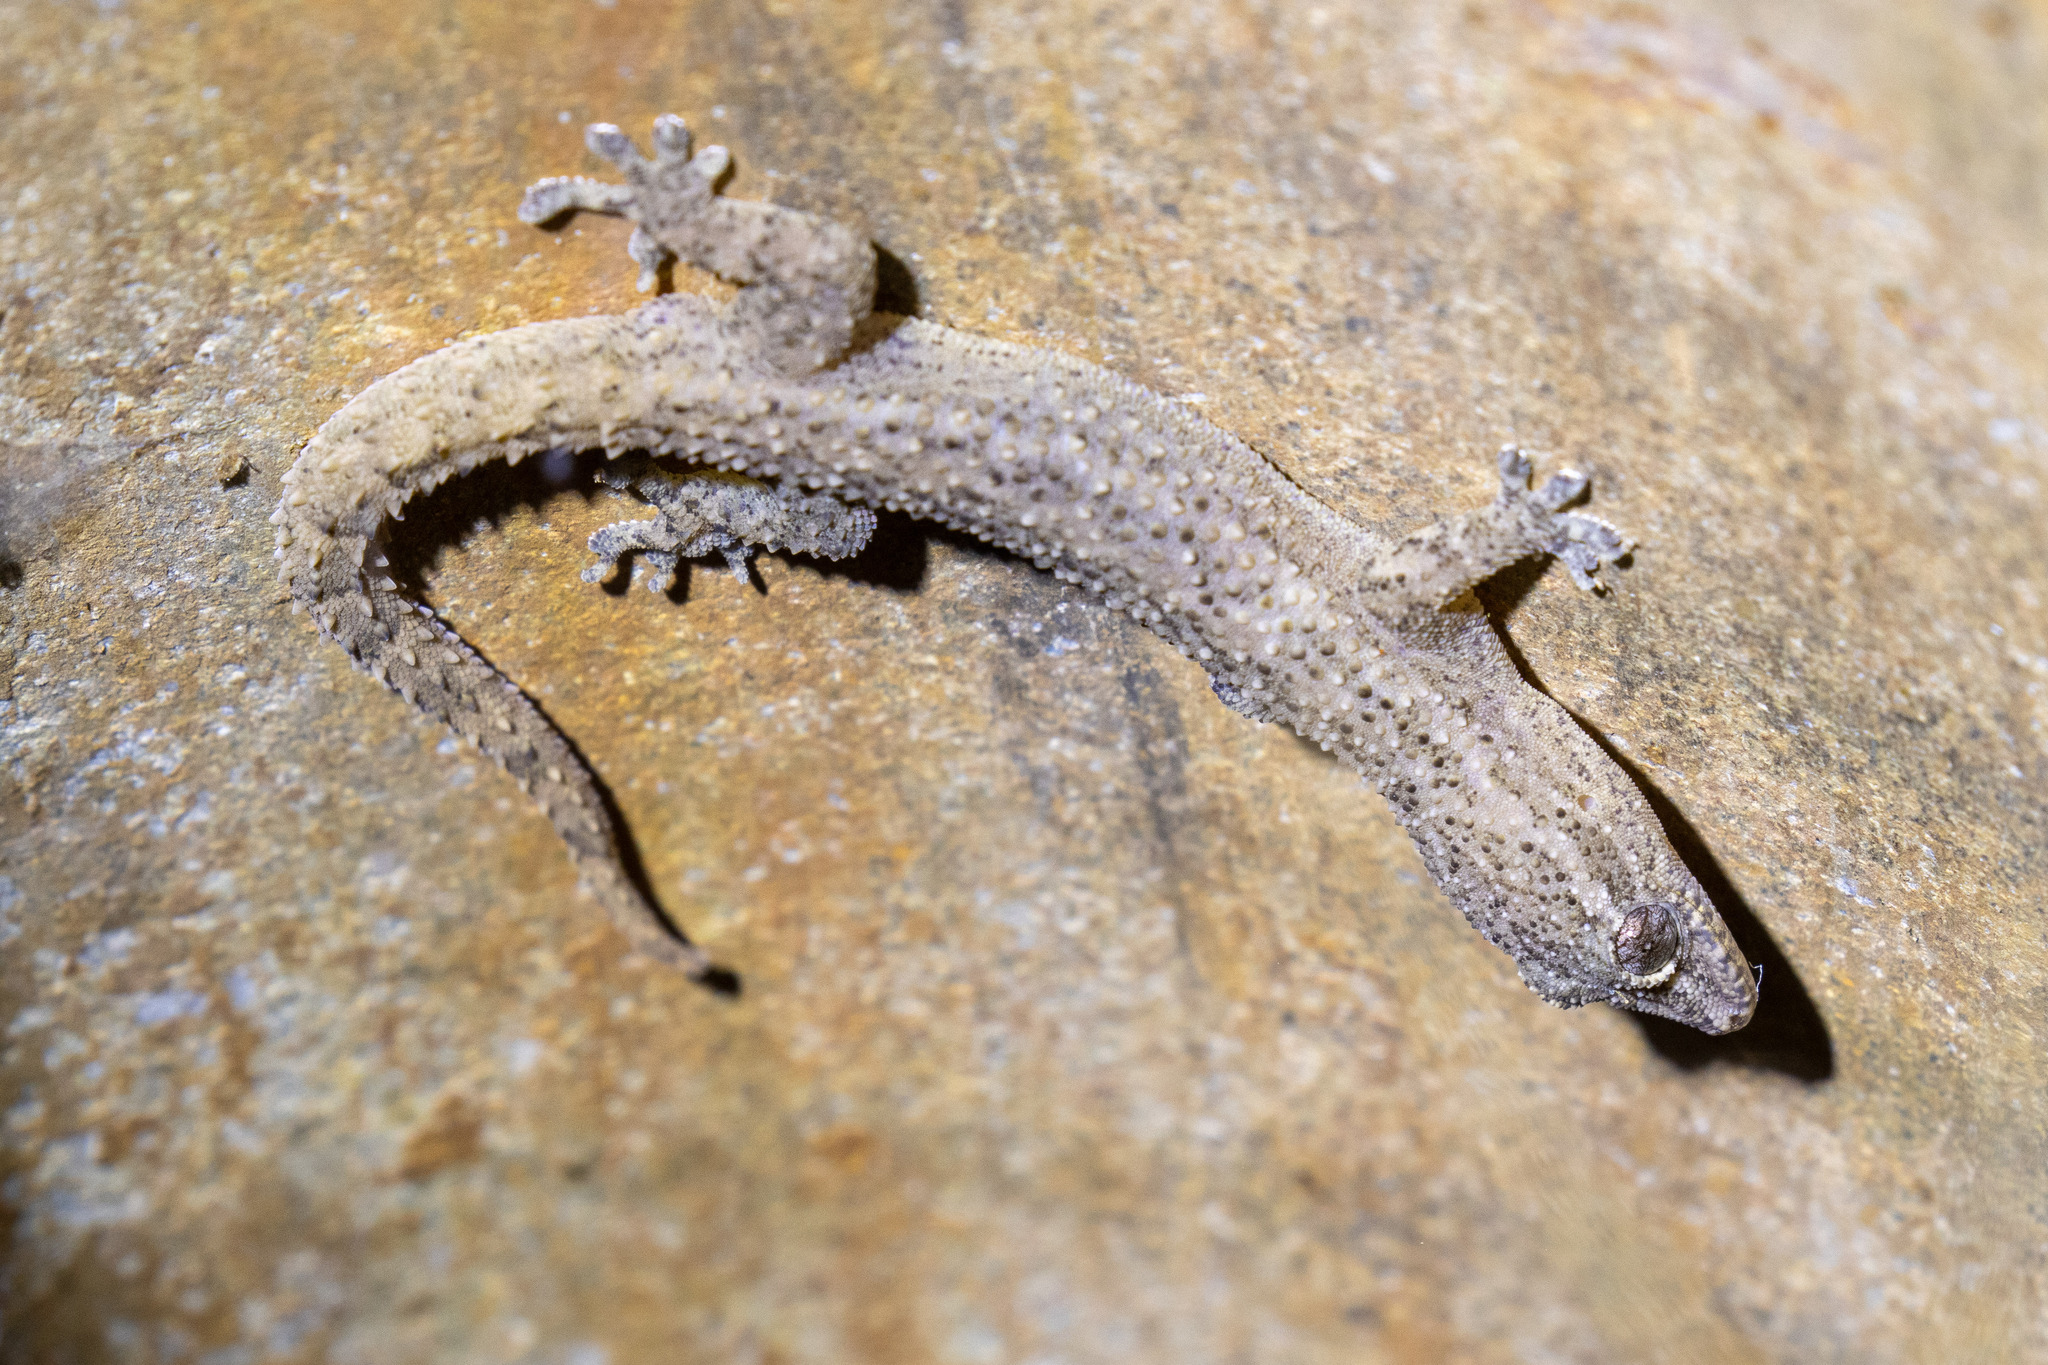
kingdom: Animalia
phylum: Chordata
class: Squamata
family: Gekkonidae
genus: Hemidactylus
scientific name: Hemidactylus agrius
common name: Country leaf-toed gecko
